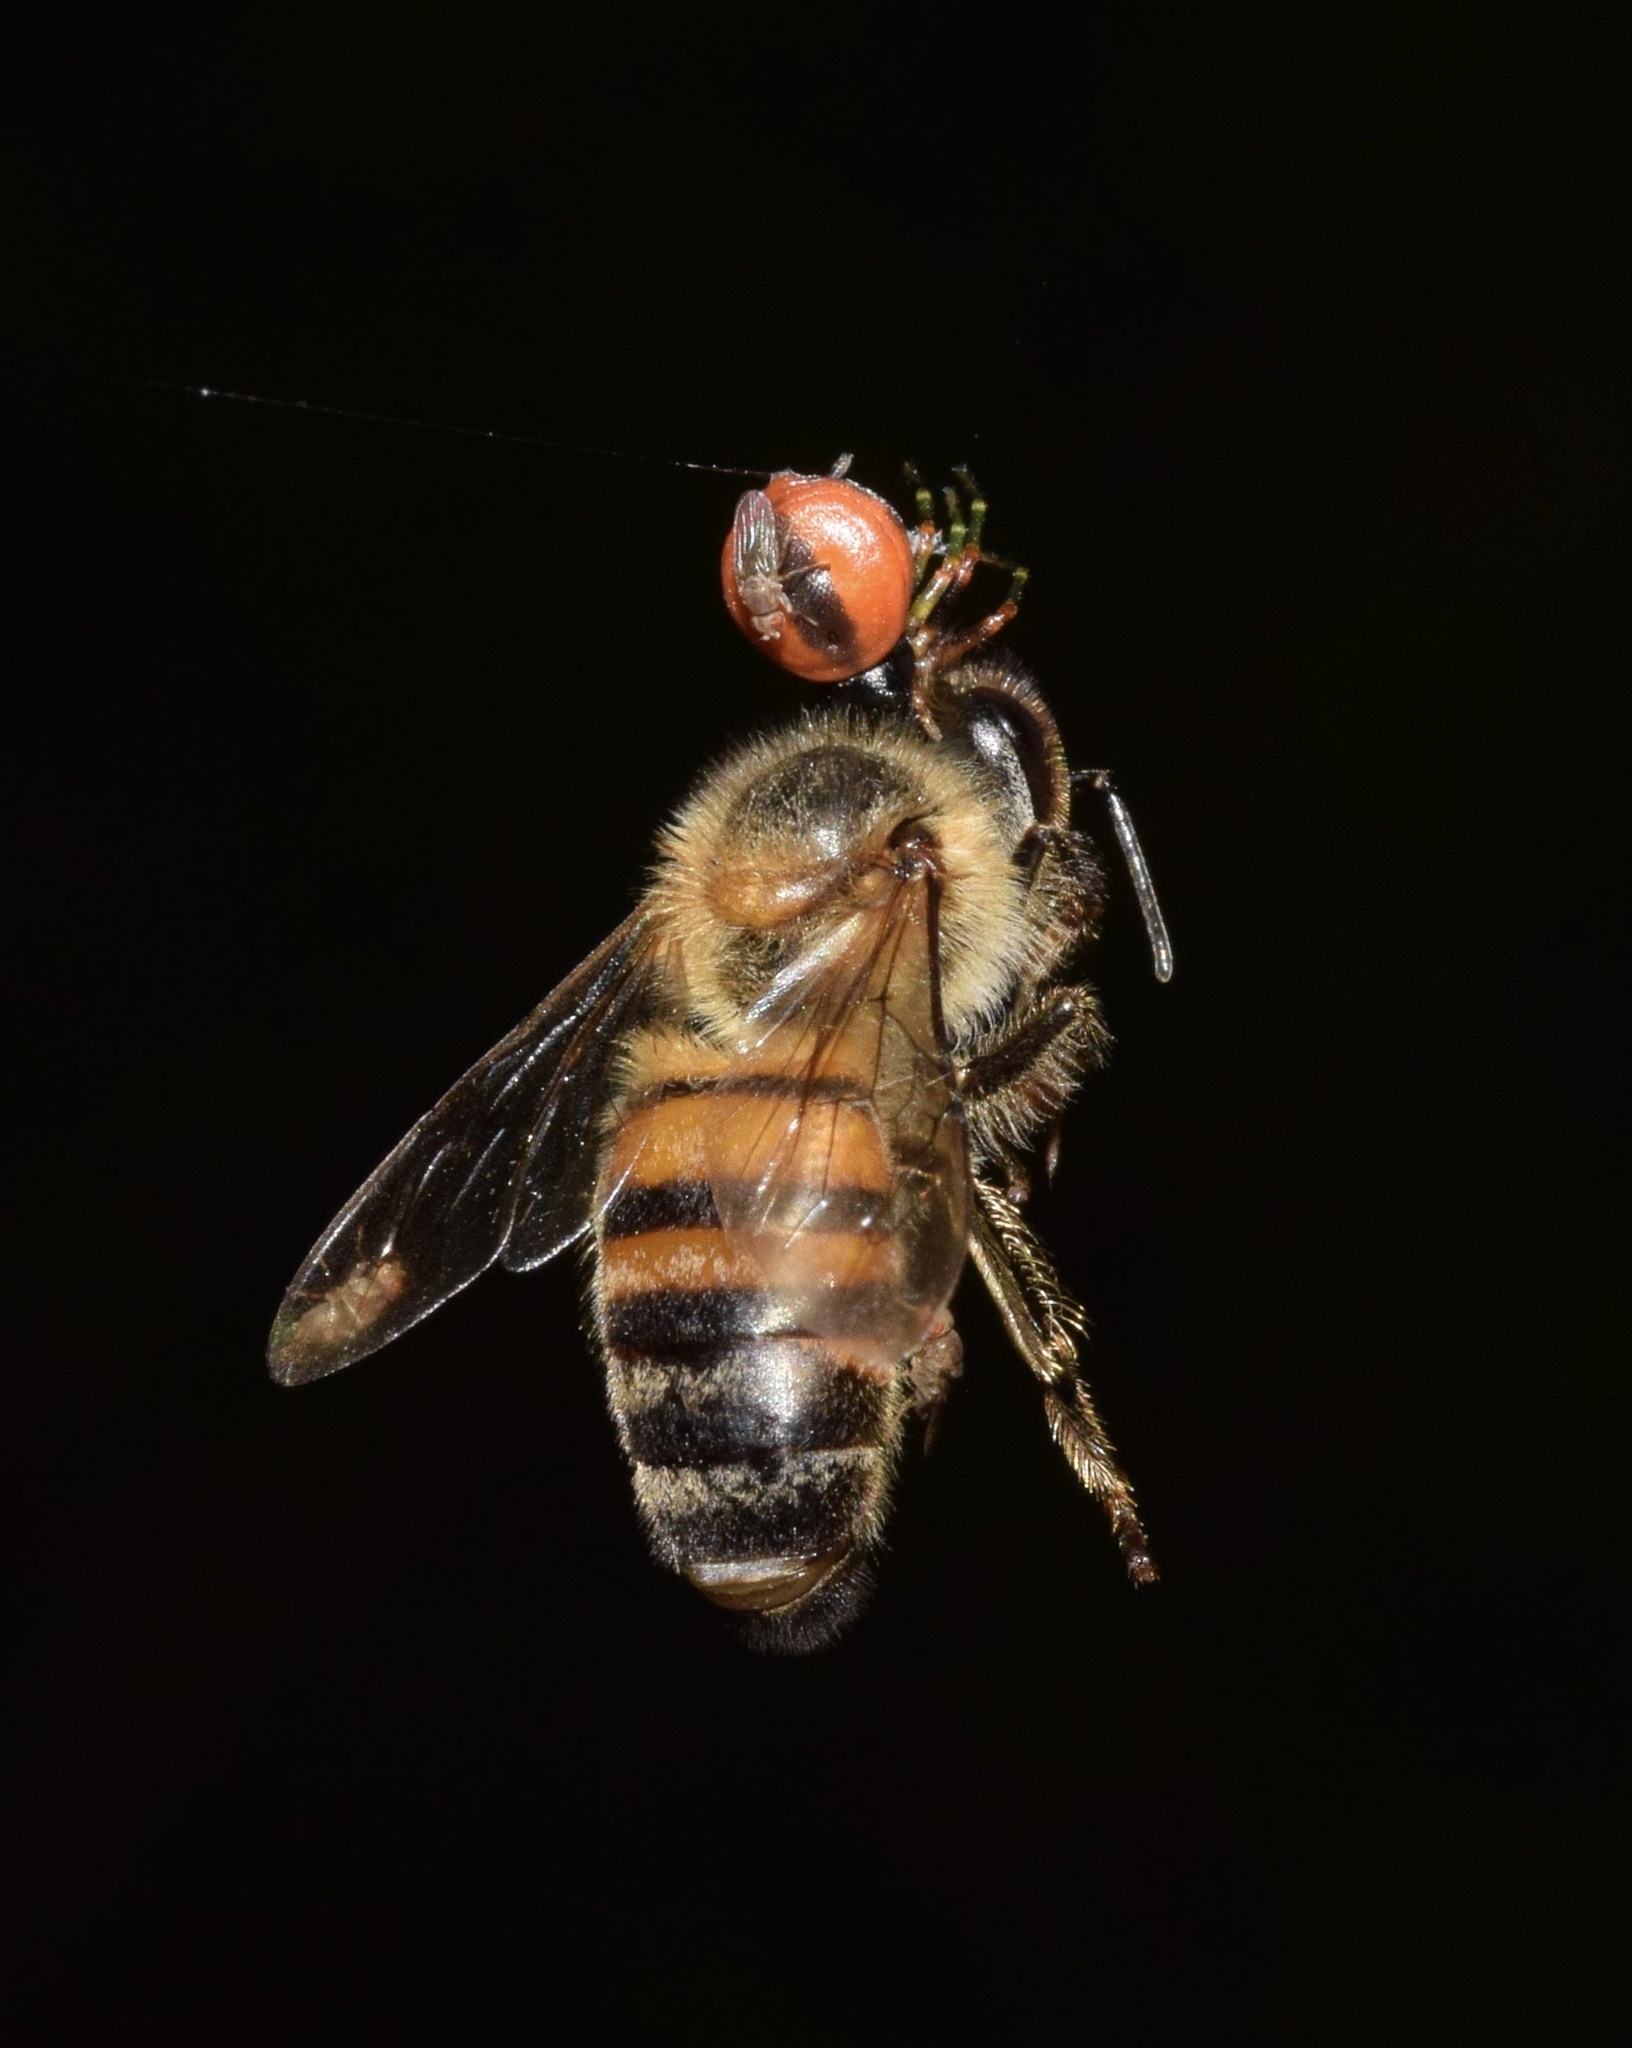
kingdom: Animalia
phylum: Arthropoda
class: Insecta
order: Hymenoptera
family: Apidae
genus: Apis
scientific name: Apis mellifera
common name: Honey bee
